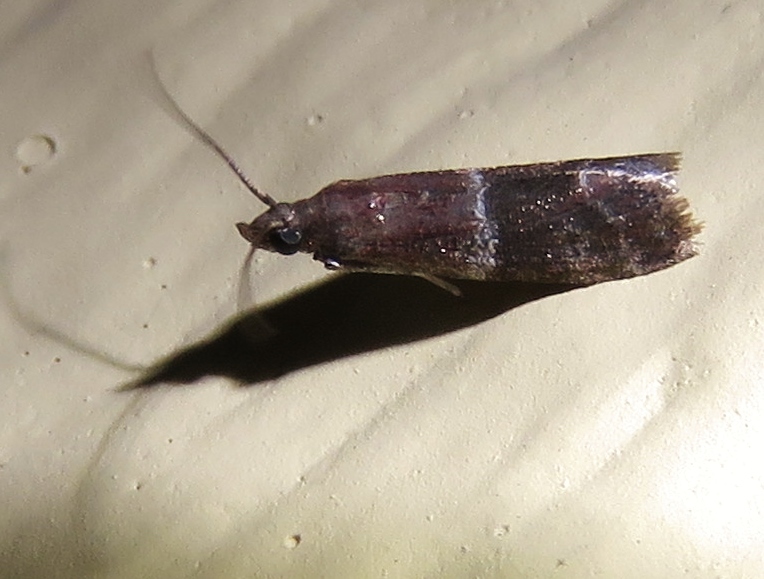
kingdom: Animalia
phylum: Arthropoda
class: Insecta
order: Lepidoptera
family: Pyralidae
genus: Moodna
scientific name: Moodna ostrinella
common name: Darker moodna moth
